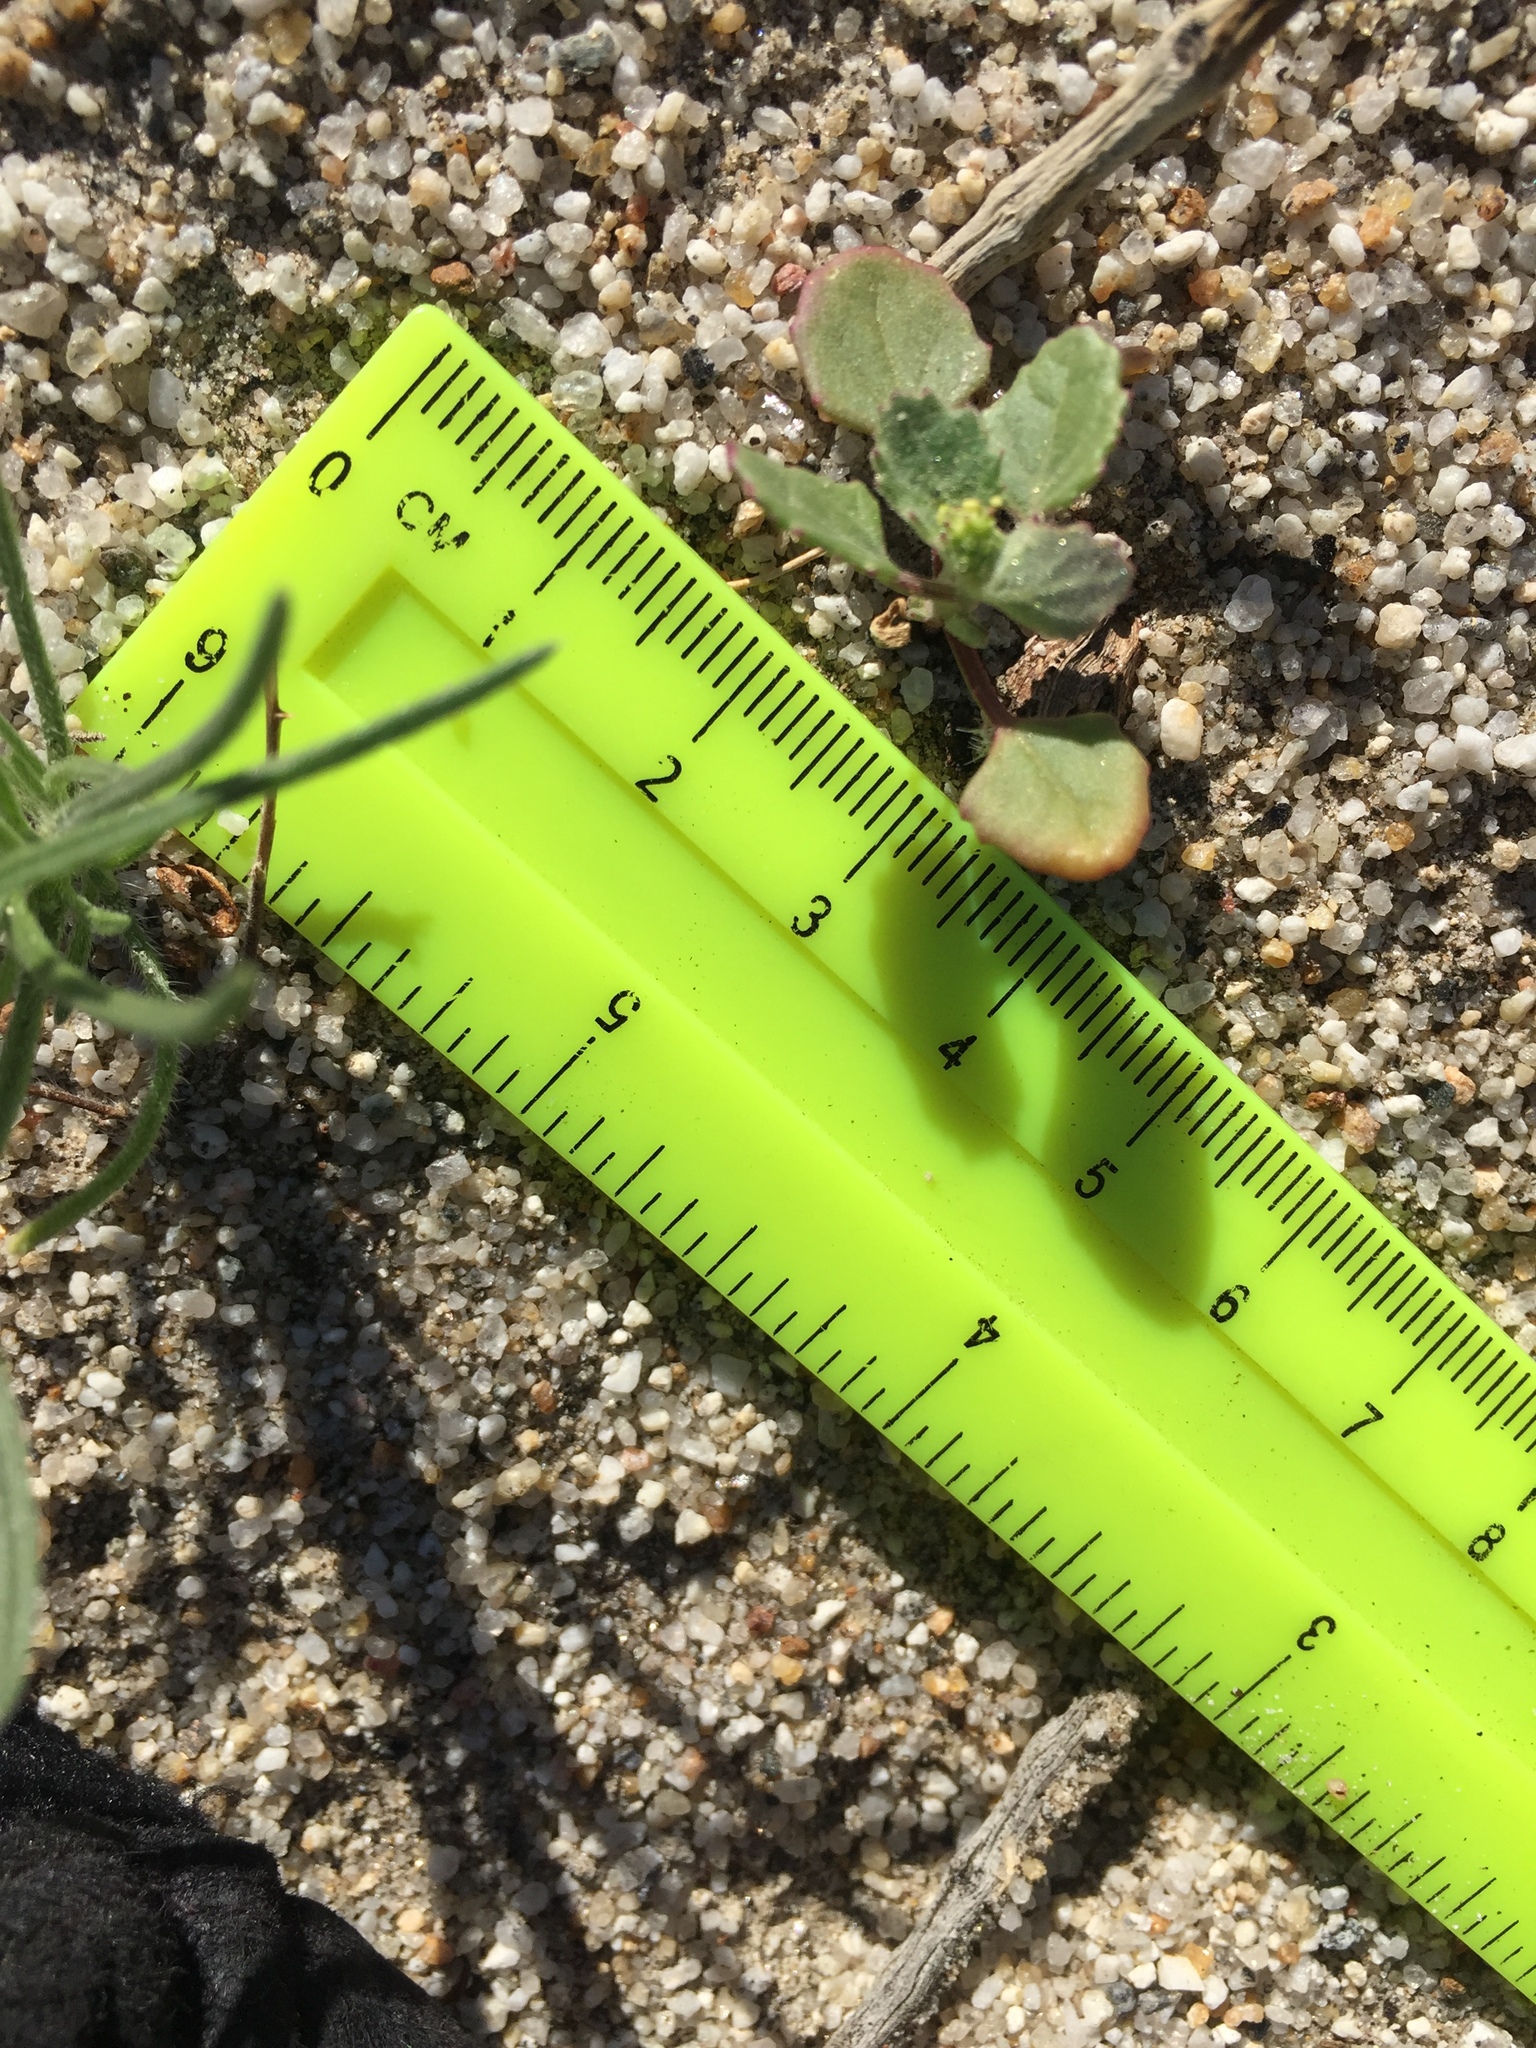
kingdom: Plantae
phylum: Tracheophyta
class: Magnoliopsida
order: Caryophyllales
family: Amaranthaceae
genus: Chenopodiastrum
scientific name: Chenopodiastrum murale
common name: Sowbane
